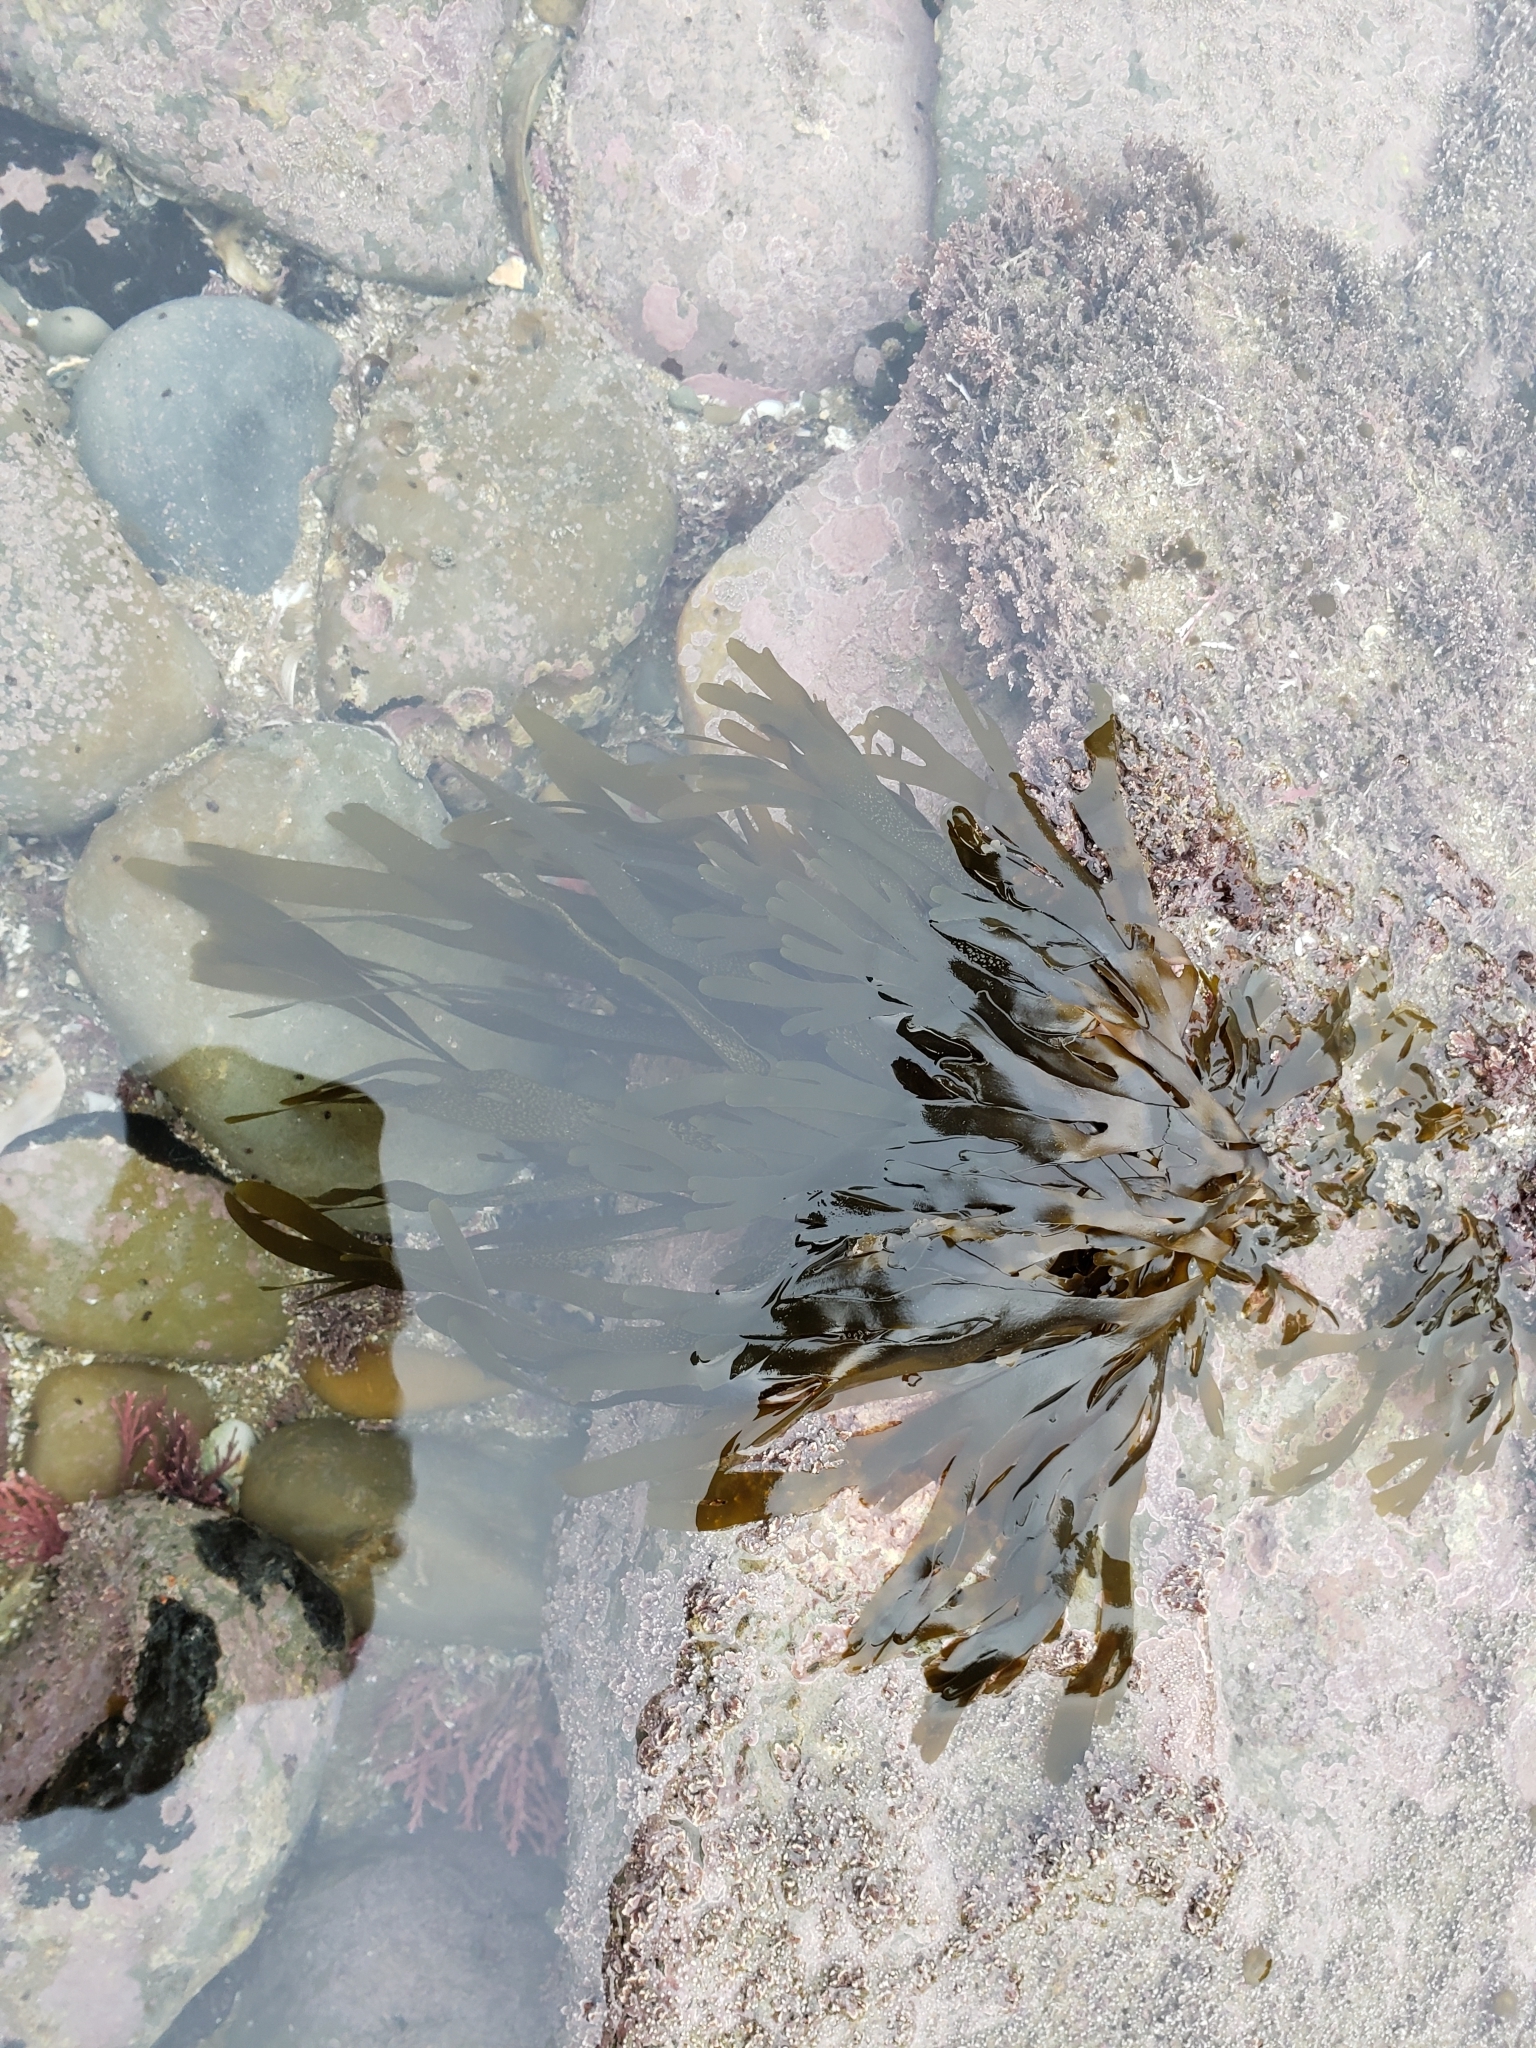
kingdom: Chromista
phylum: Ochrophyta
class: Phaeophyceae
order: Dictyotales
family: Dictyotaceae
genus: Dictyota
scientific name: Dictyota kunthii
